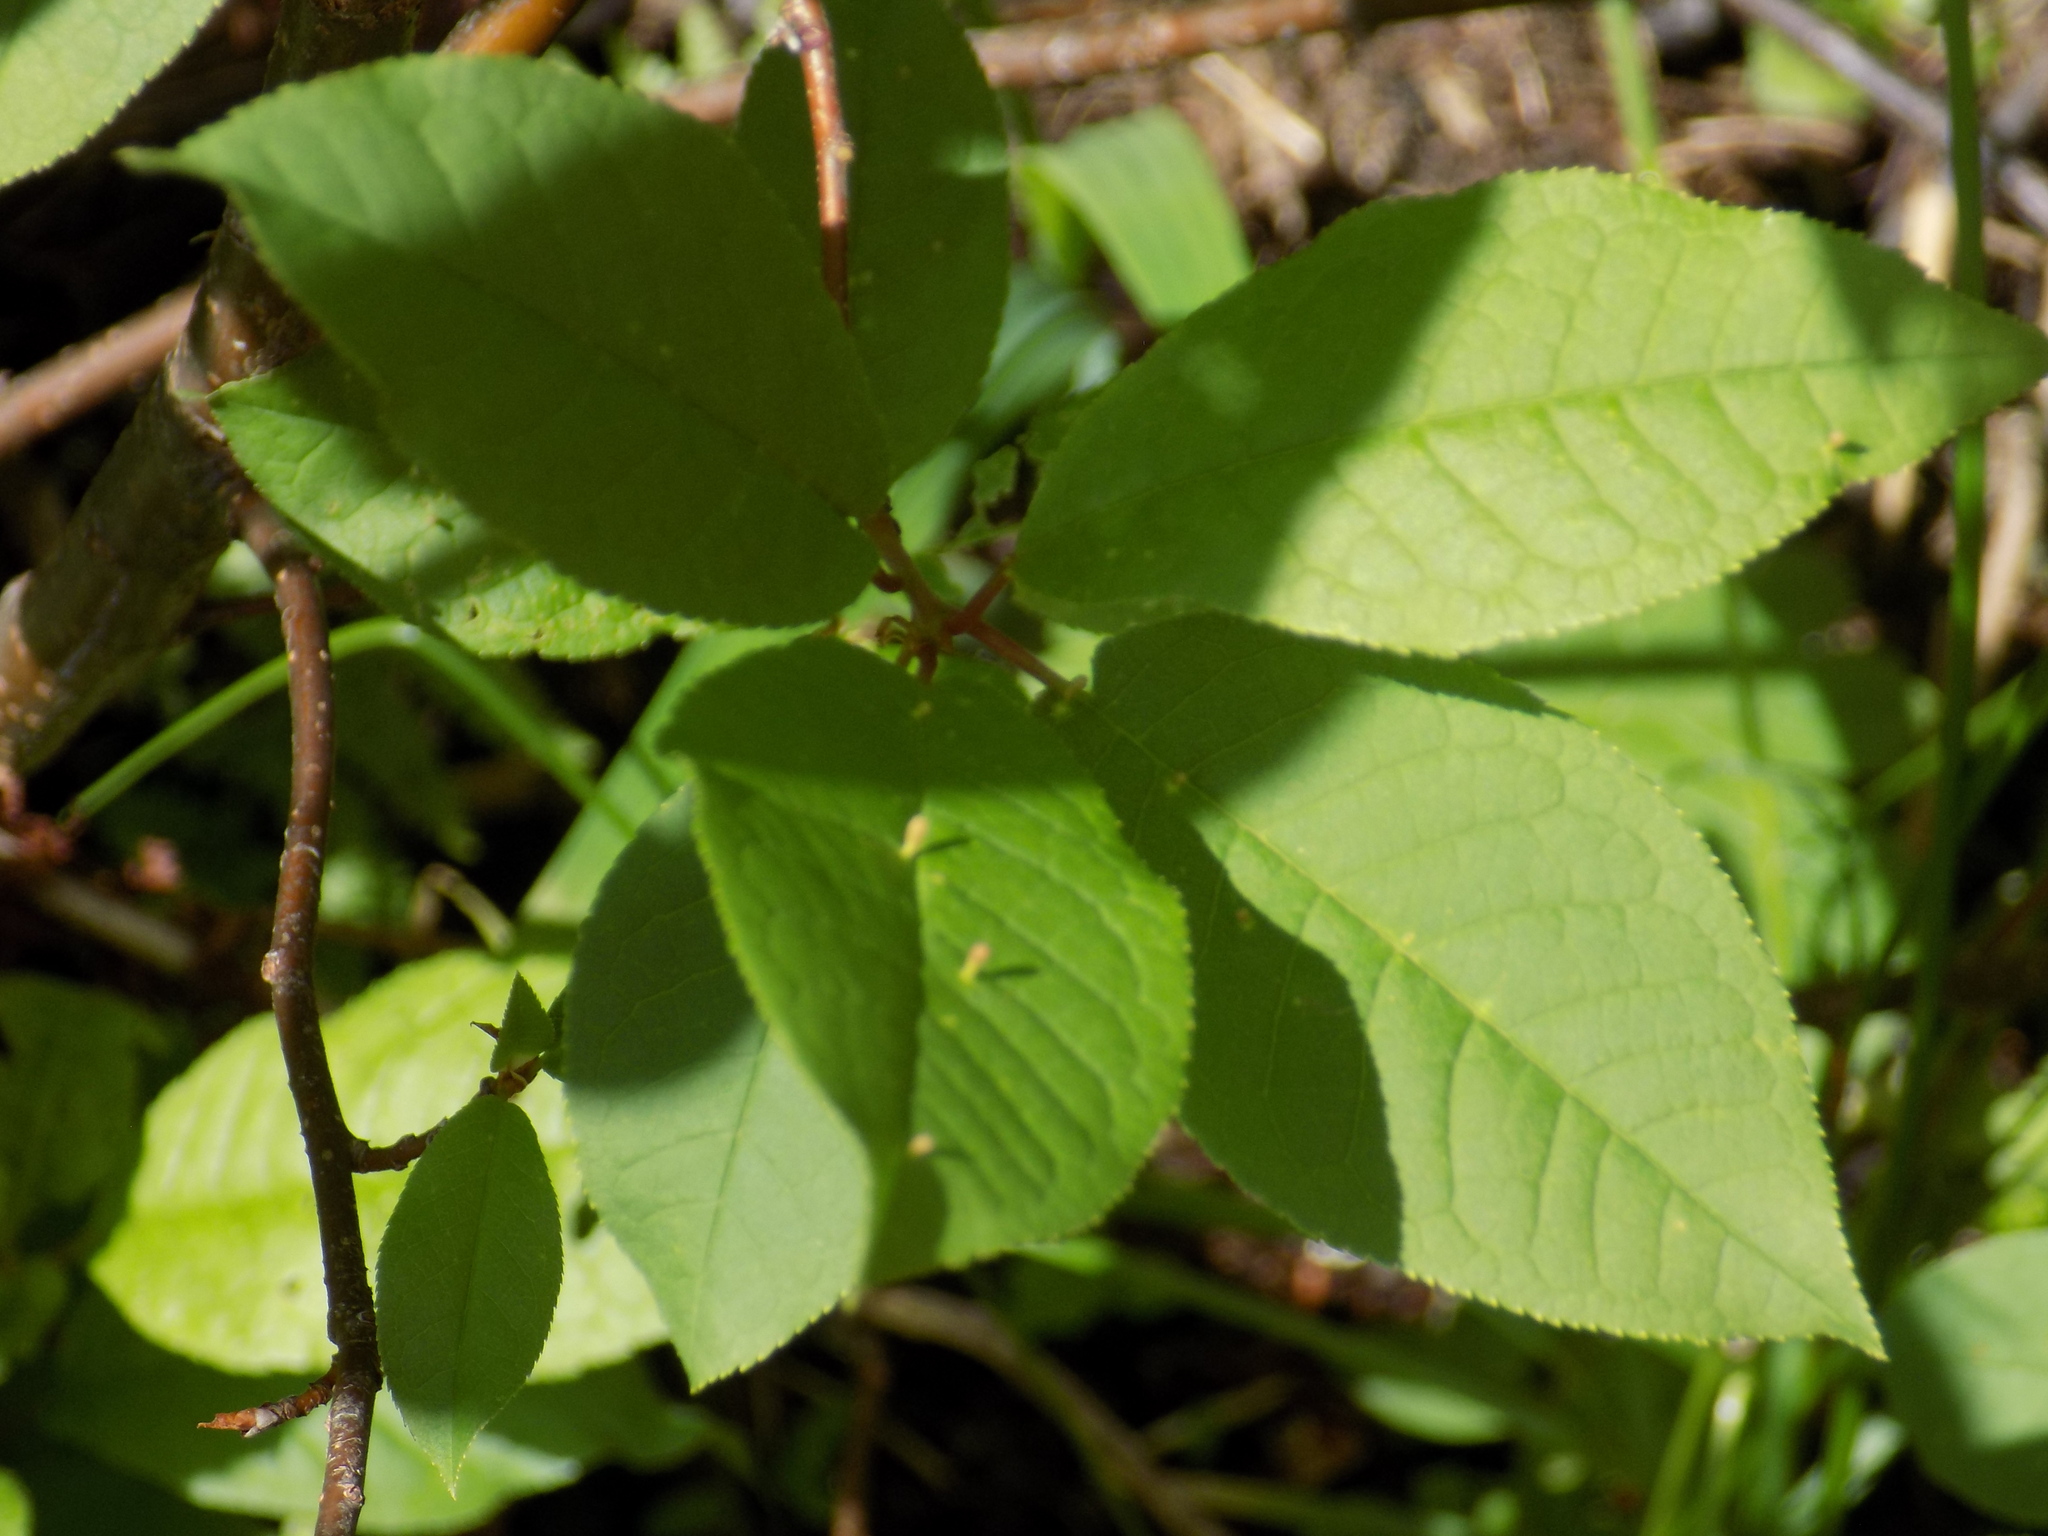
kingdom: Plantae
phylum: Tracheophyta
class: Magnoliopsida
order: Rosales
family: Rosaceae
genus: Prunus
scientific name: Prunus padus
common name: Bird cherry
